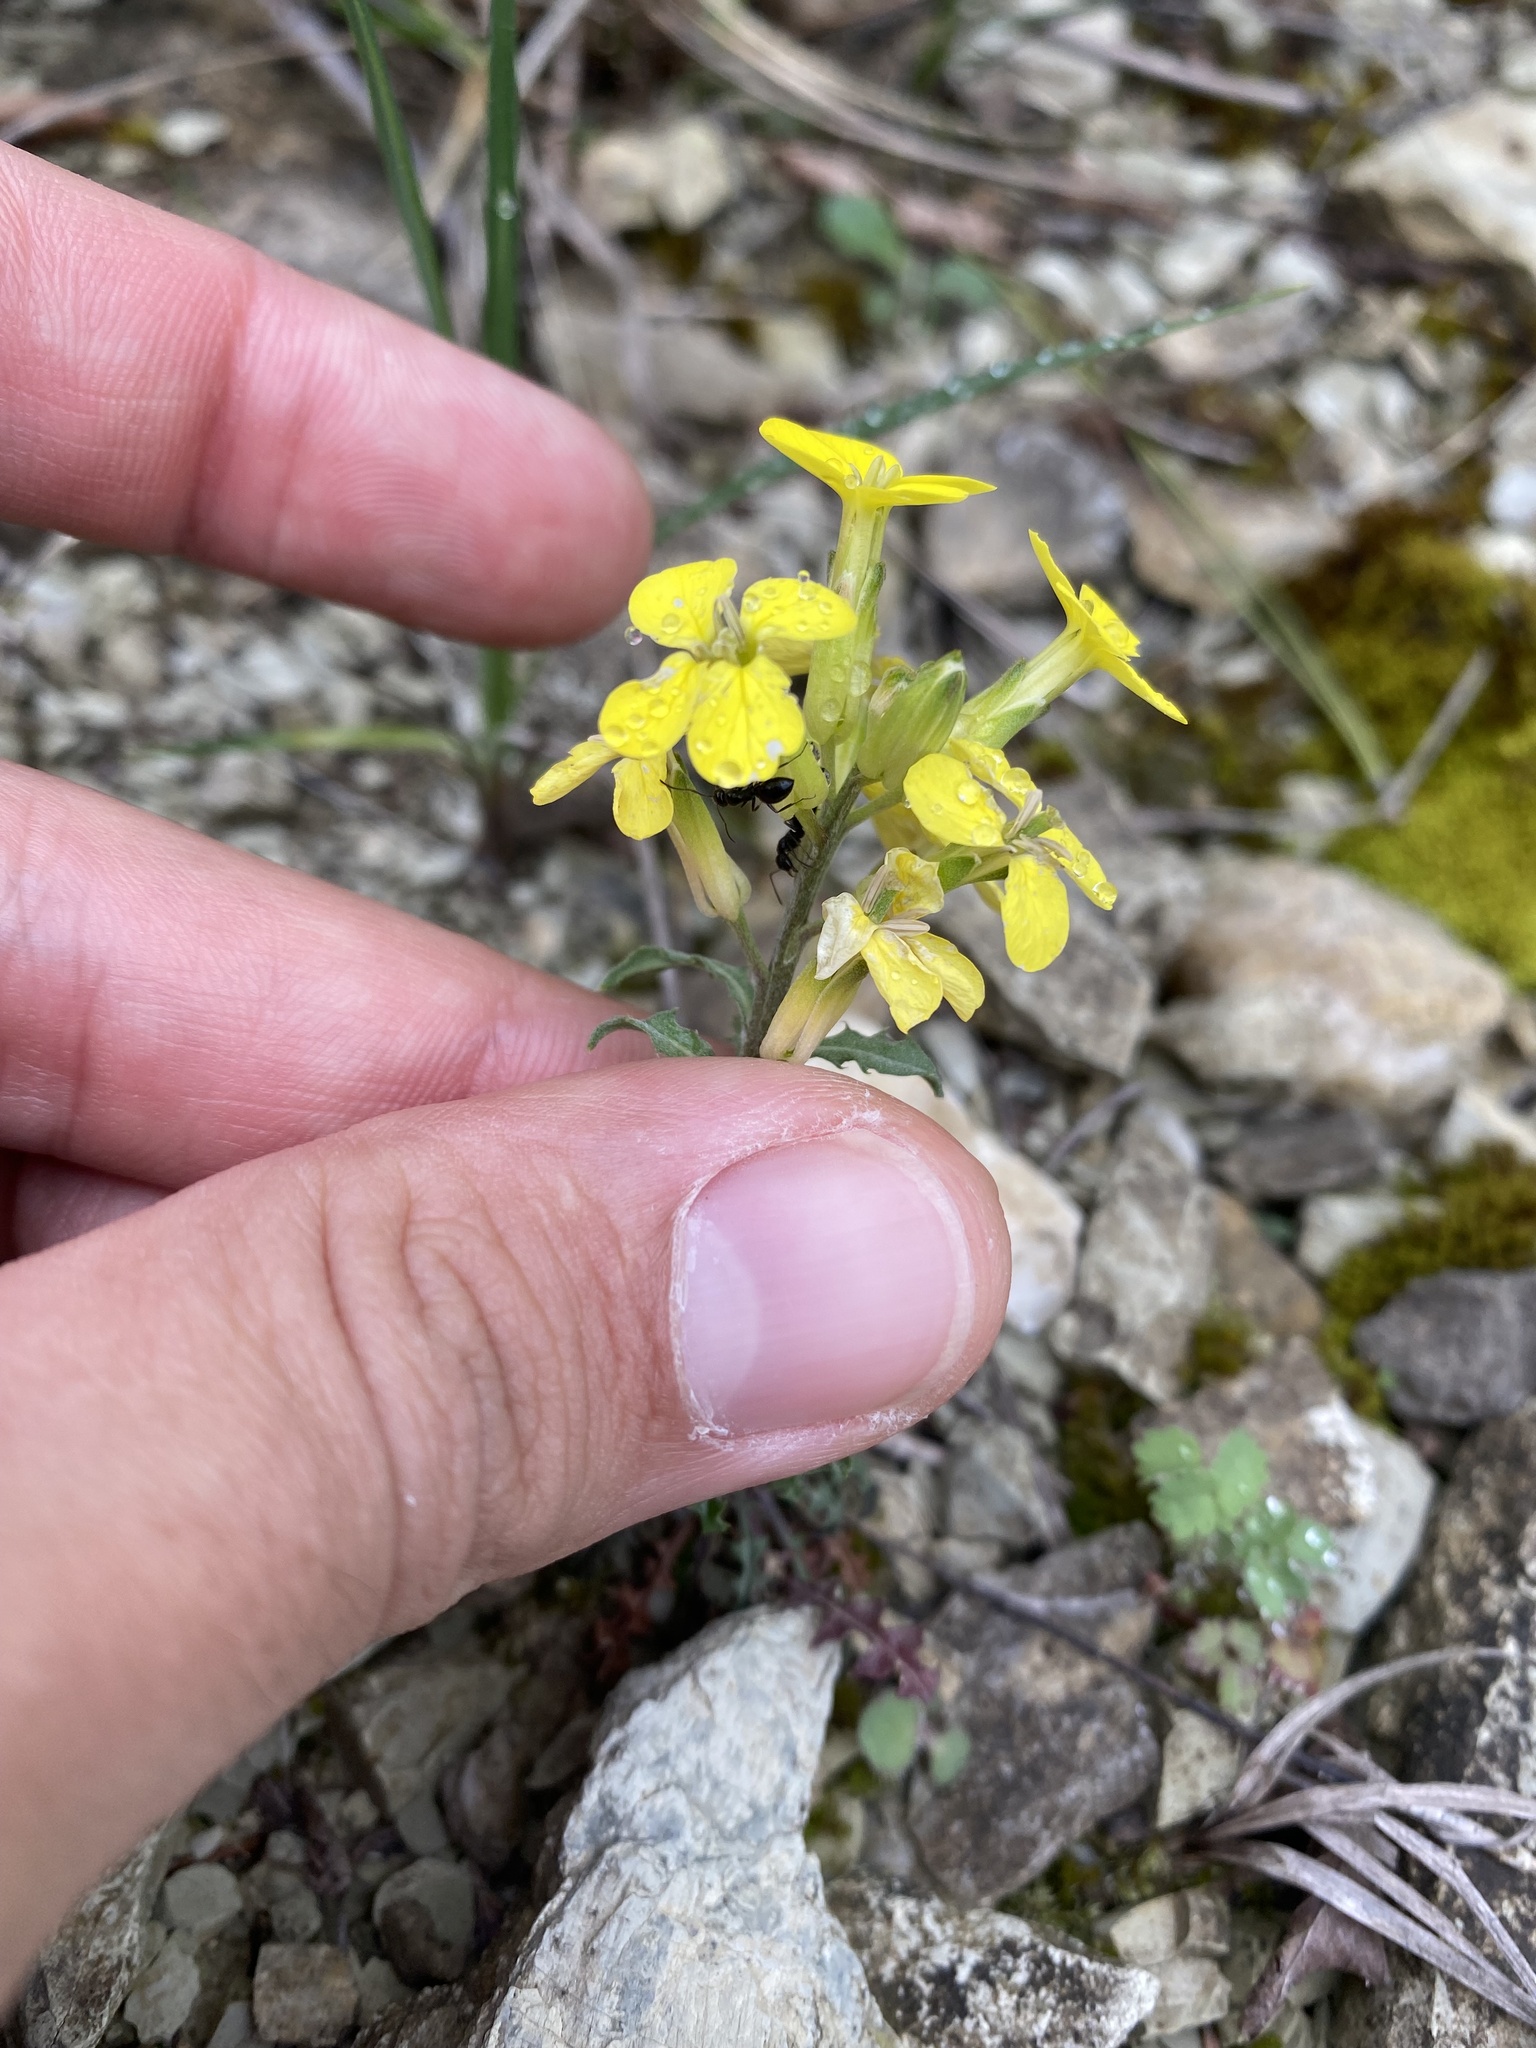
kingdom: Plantae
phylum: Tracheophyta
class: Magnoliopsida
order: Brassicales
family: Brassicaceae
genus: Erysimum
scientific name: Erysimum callicarpum
